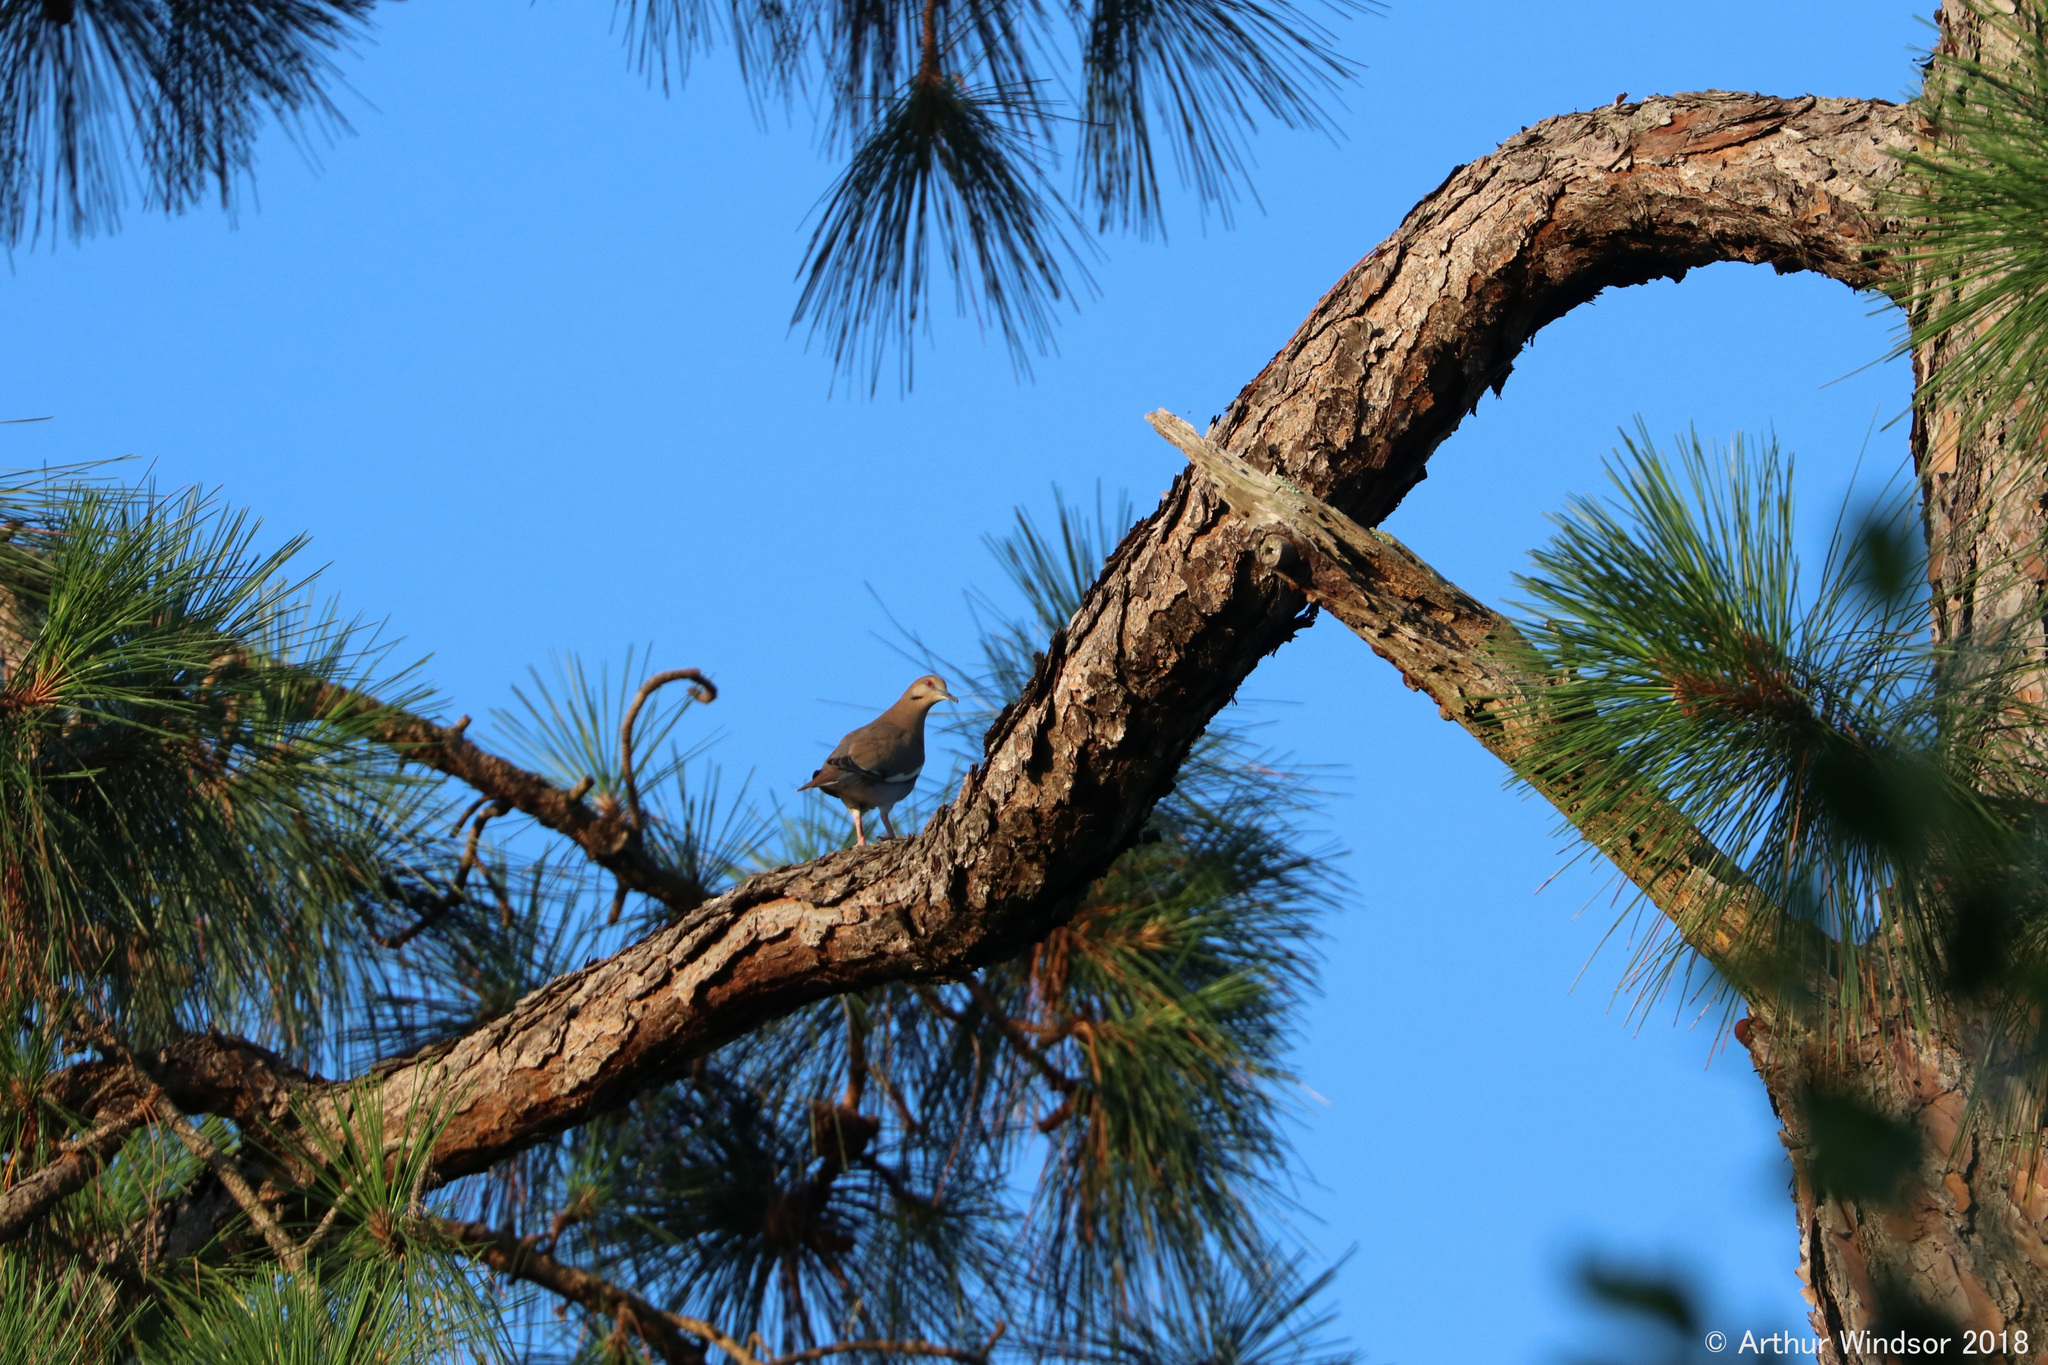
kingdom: Animalia
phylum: Chordata
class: Aves
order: Columbiformes
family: Columbidae
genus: Zenaida
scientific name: Zenaida asiatica
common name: White-winged dove
